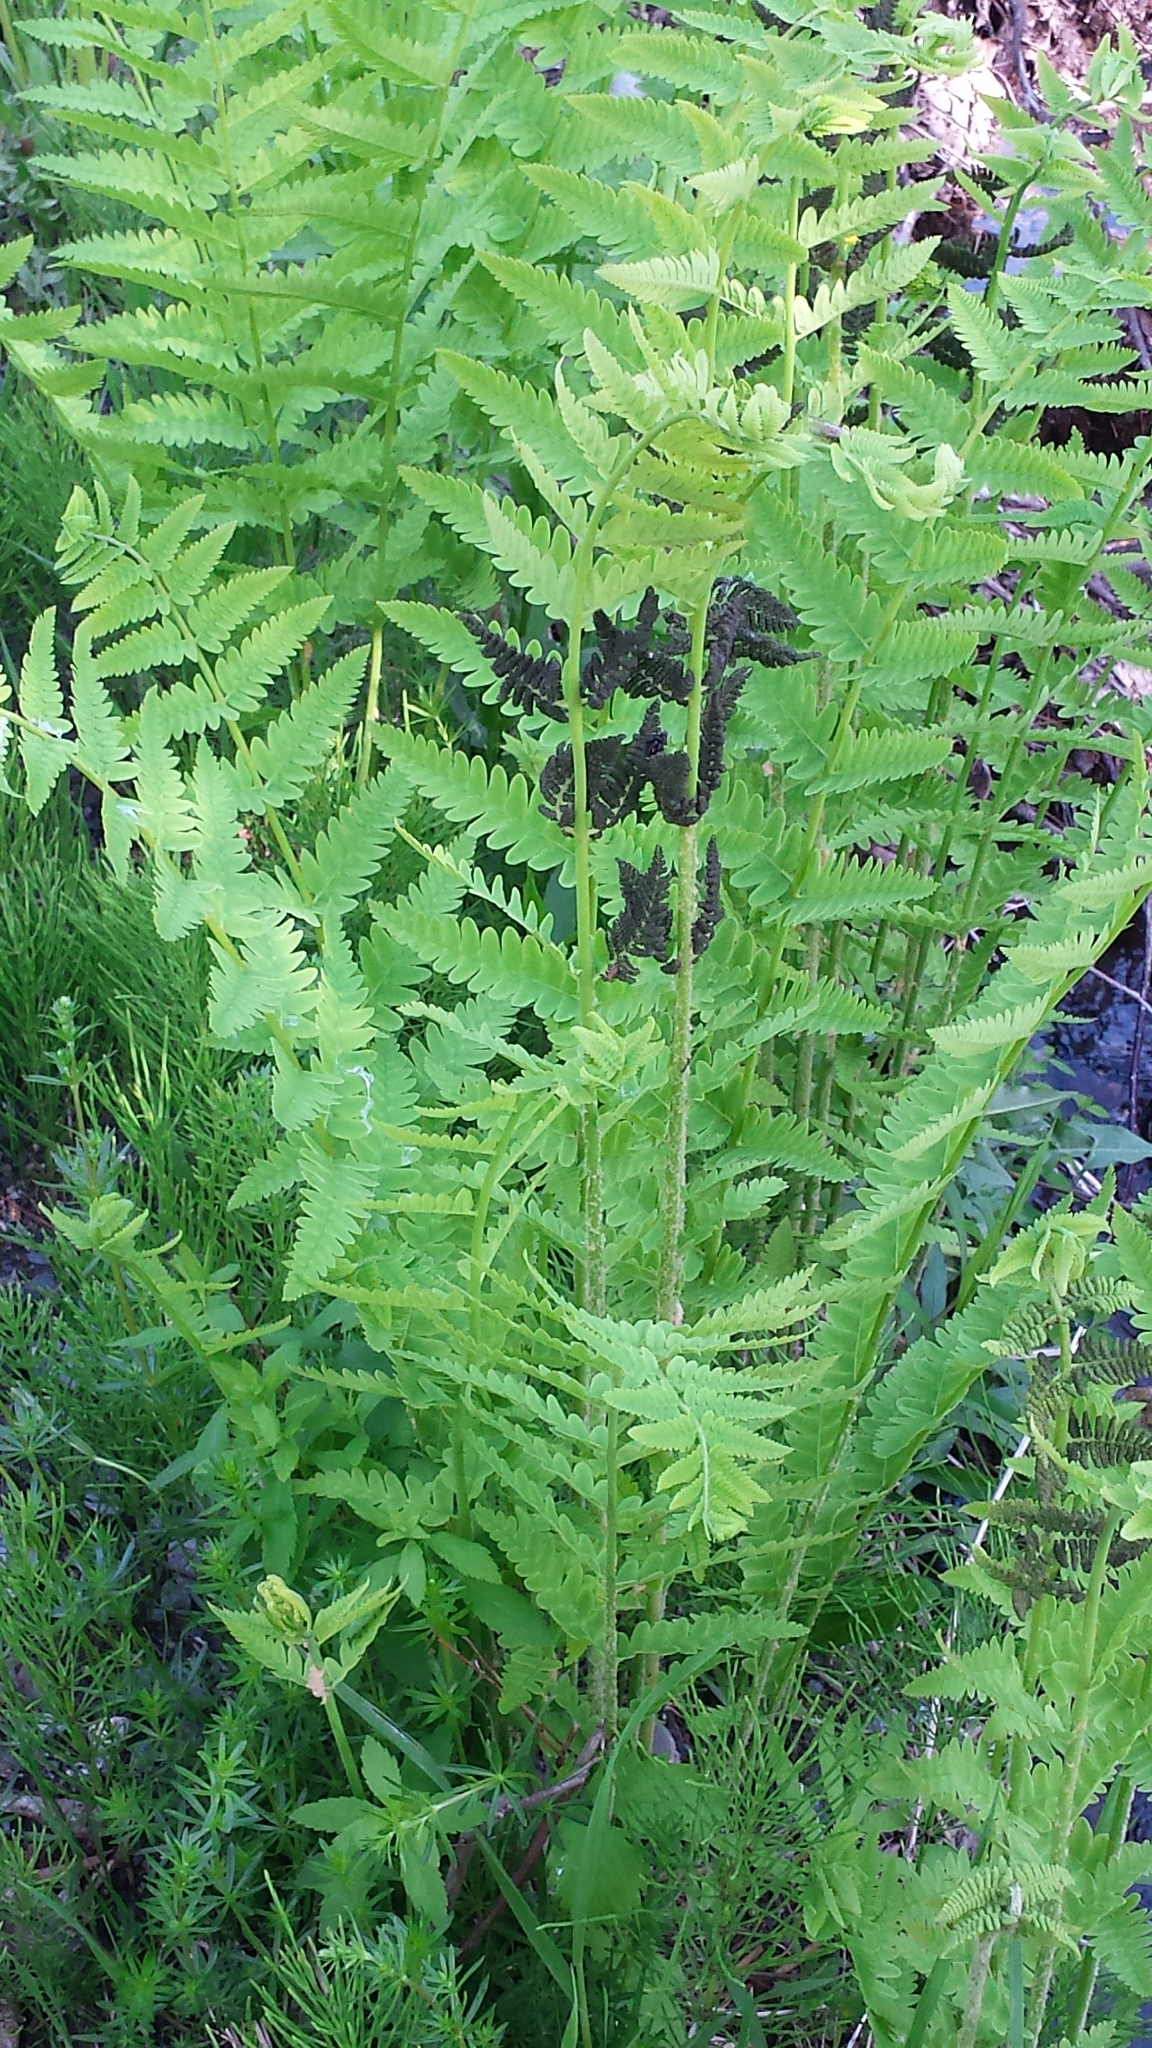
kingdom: Plantae
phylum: Tracheophyta
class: Polypodiopsida
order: Osmundales
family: Osmundaceae
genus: Claytosmunda
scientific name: Claytosmunda claytoniana
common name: Clayton's fern
